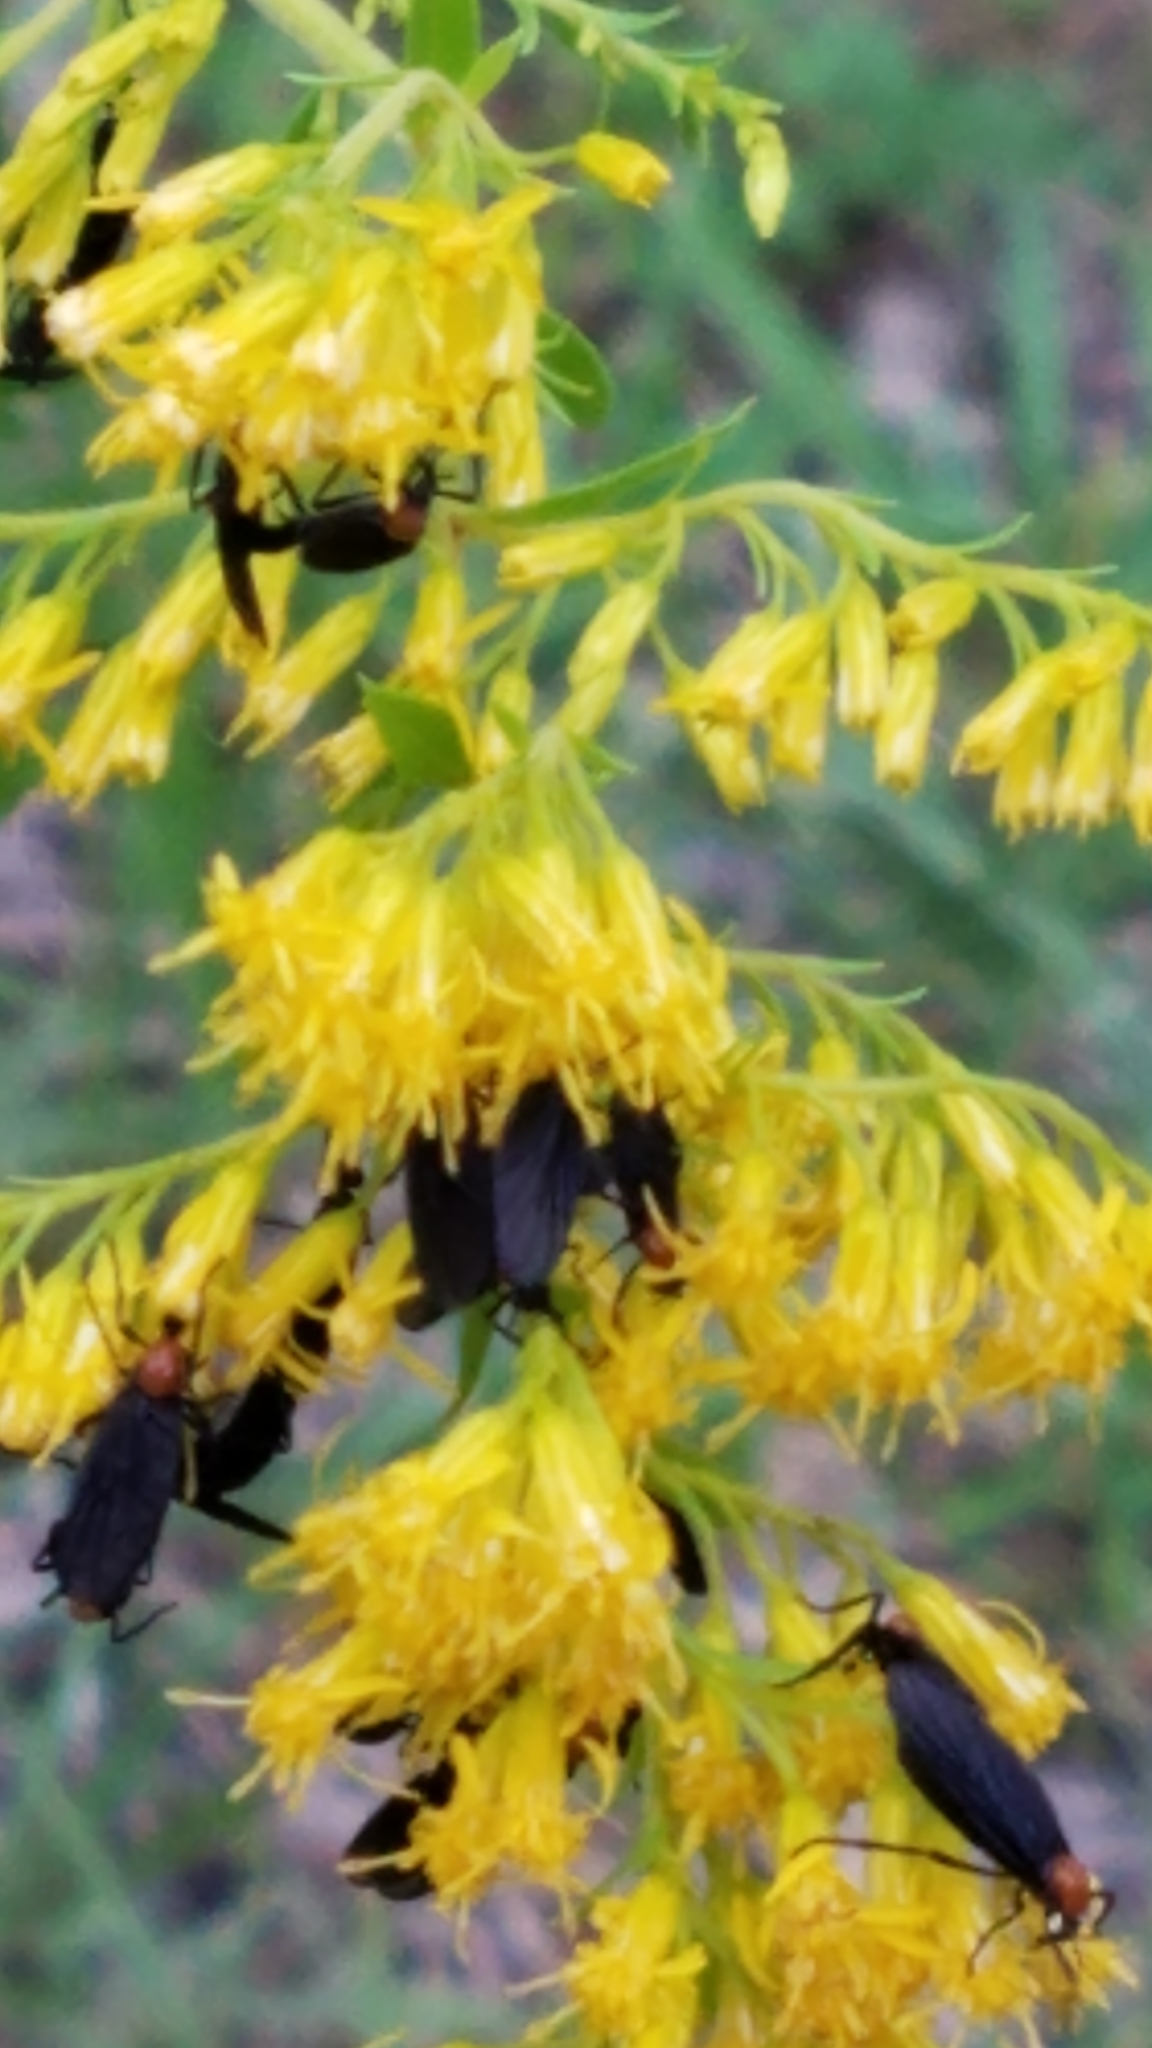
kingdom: Animalia
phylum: Arthropoda
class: Insecta
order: Diptera
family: Bibionidae
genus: Plecia
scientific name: Plecia nearctica
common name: March fly
